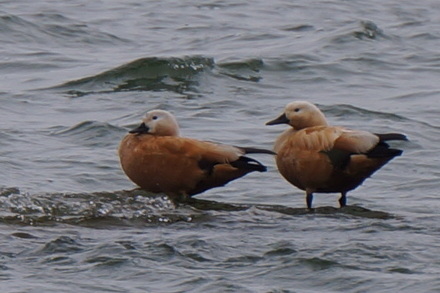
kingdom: Animalia
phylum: Chordata
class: Aves
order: Anseriformes
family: Anatidae
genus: Tadorna
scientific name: Tadorna ferruginea
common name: Ruddy shelduck
